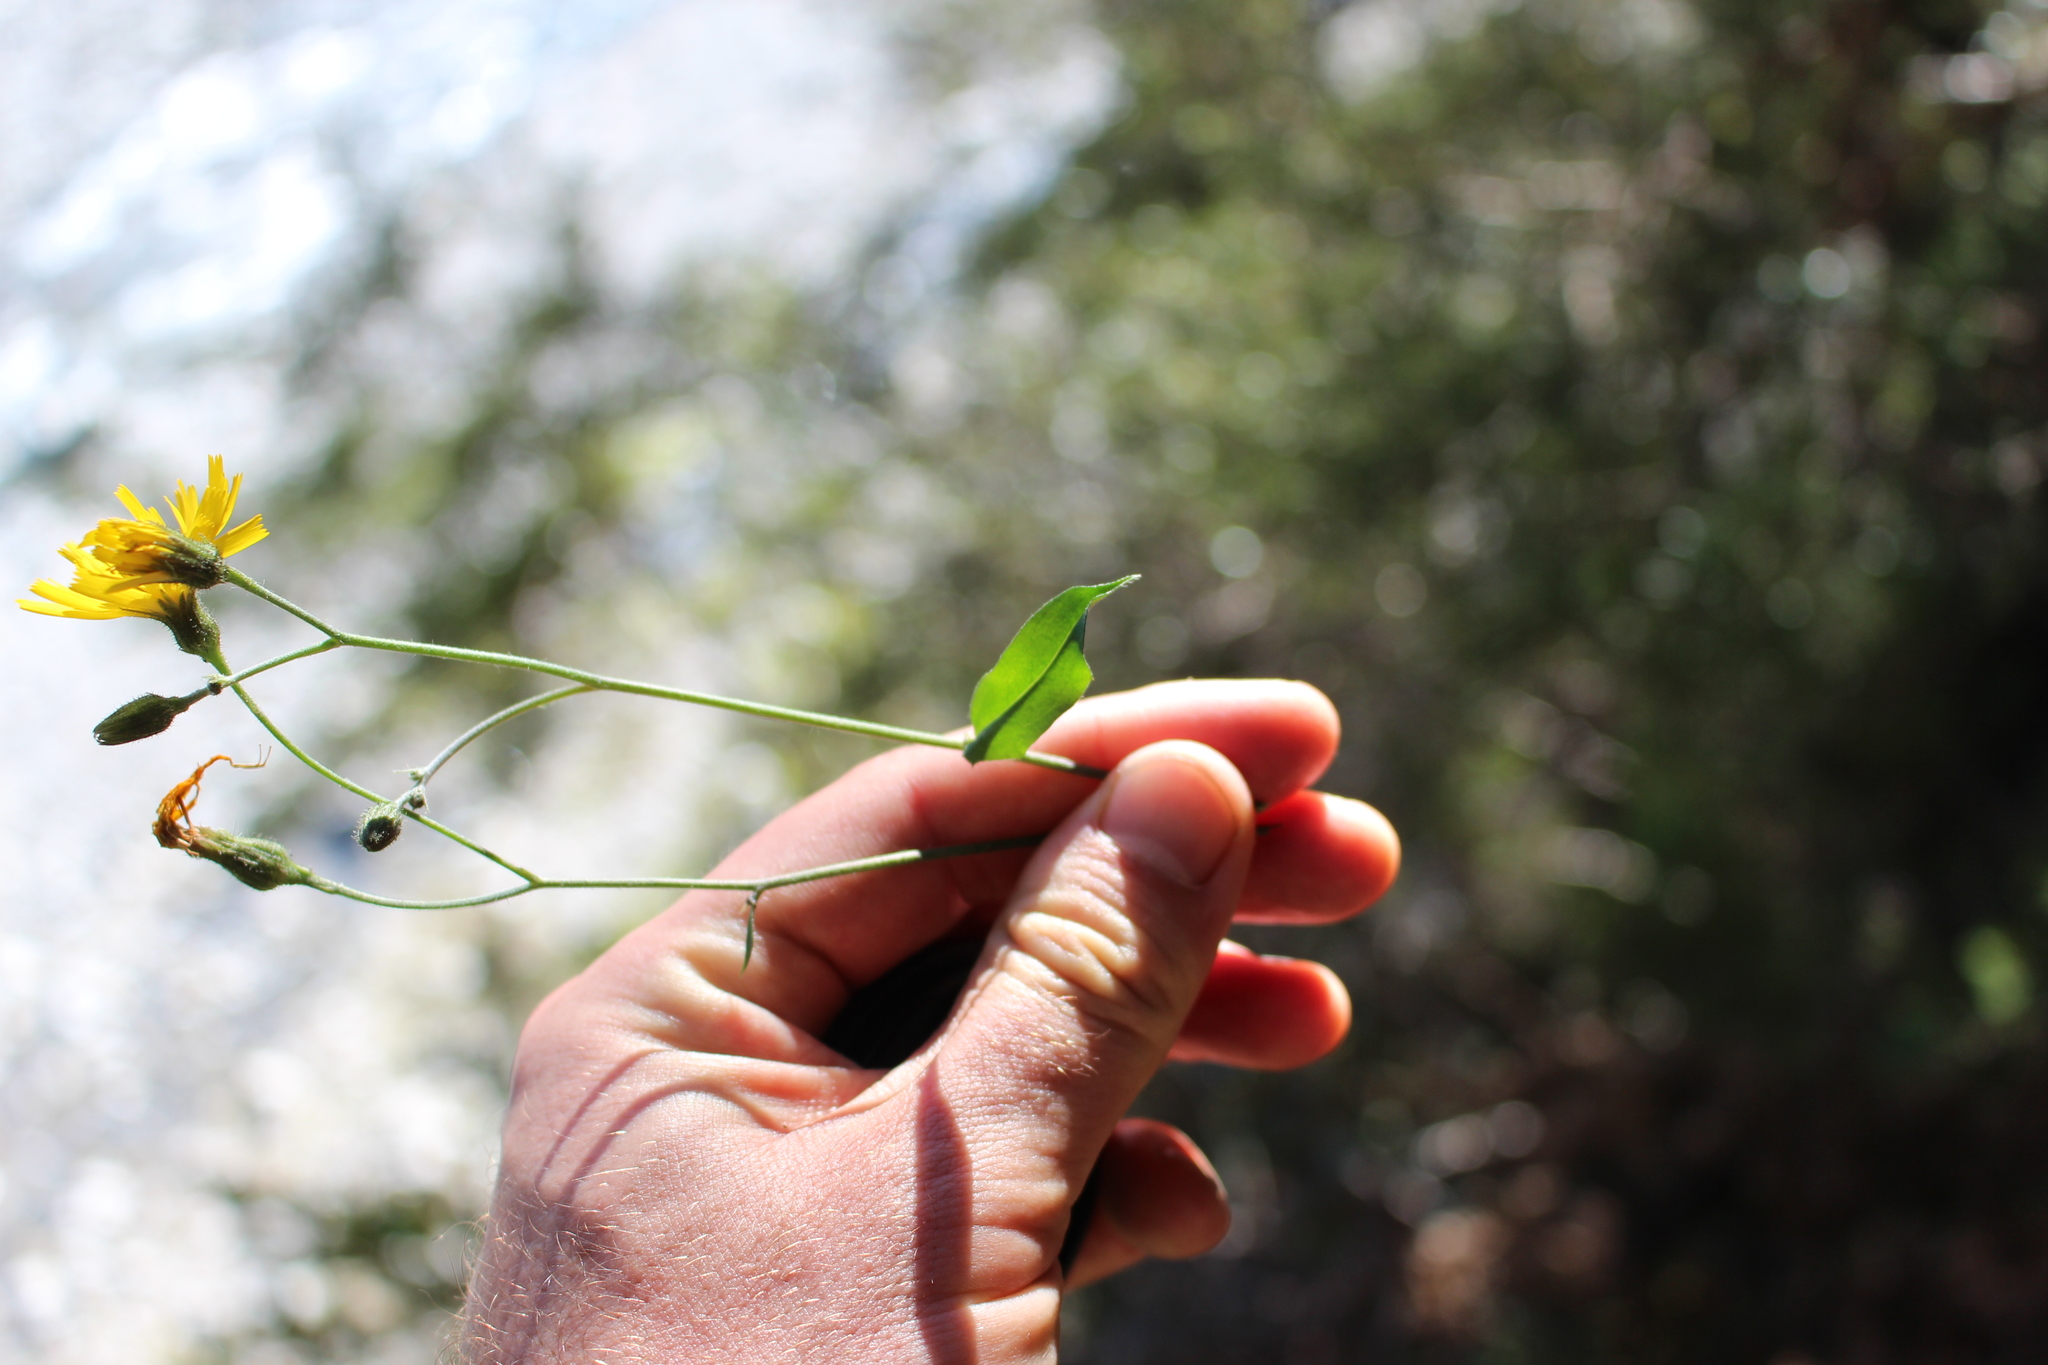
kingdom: Plantae
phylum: Tracheophyta
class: Magnoliopsida
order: Asterales
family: Asteraceae
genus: Hieracium
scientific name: Hieracium lepidulum
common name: Irregular-toothed hawkweed
